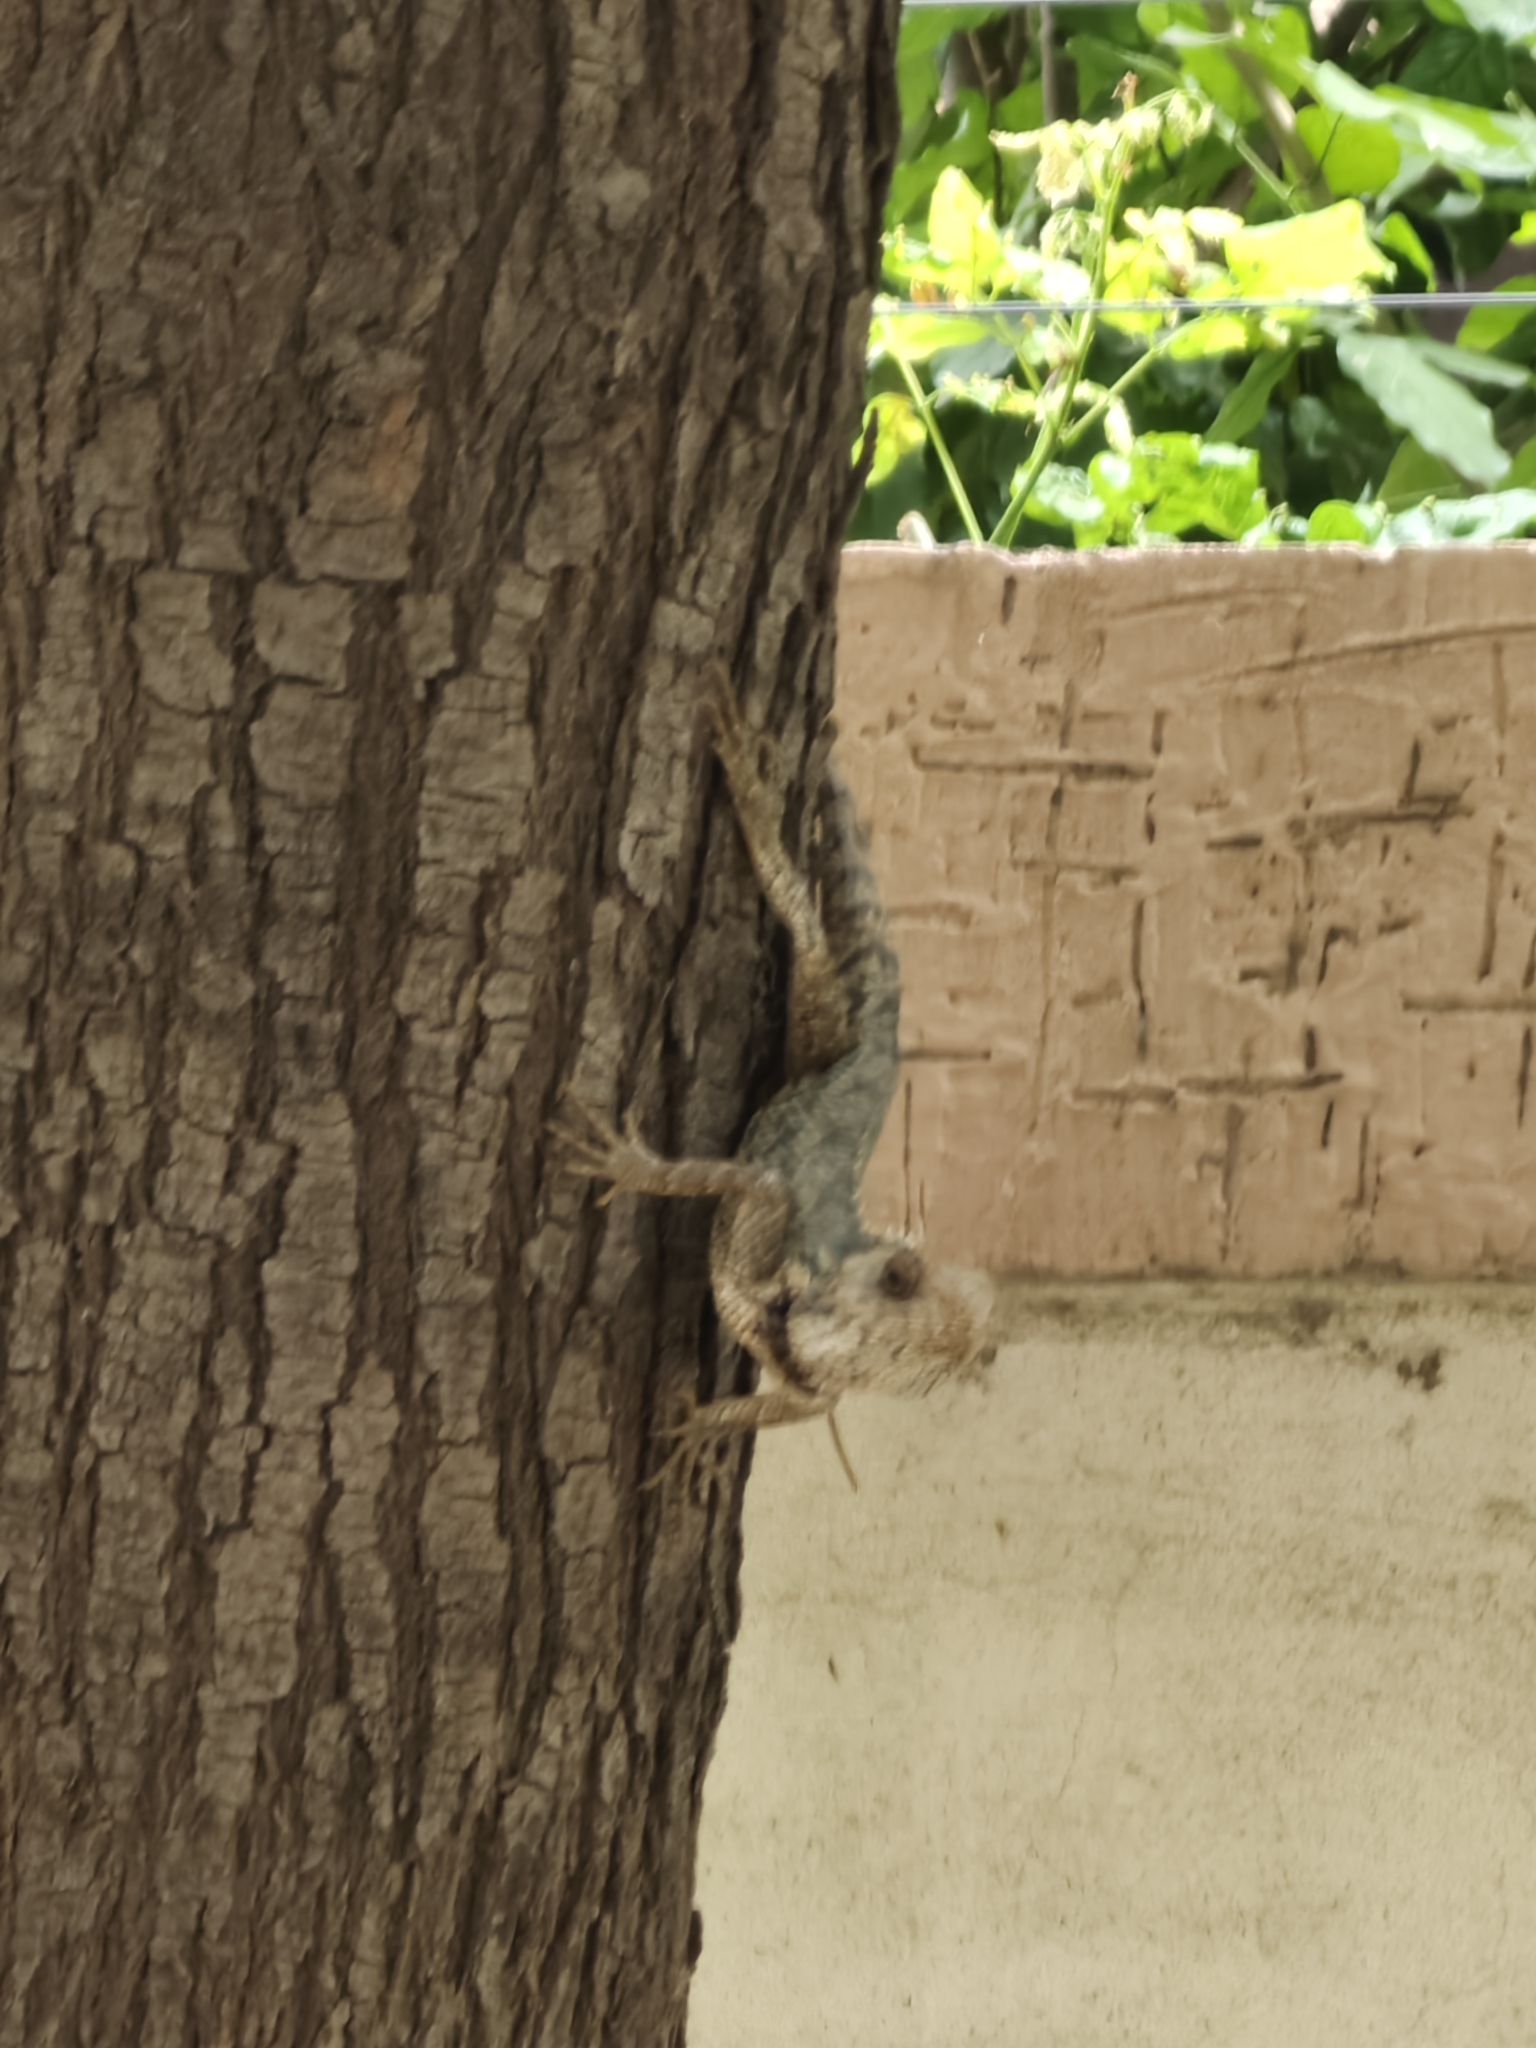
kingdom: Animalia
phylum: Chordata
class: Squamata
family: Agamidae
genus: Calotes
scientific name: Calotes versicolor
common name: Oriental garden lizard
